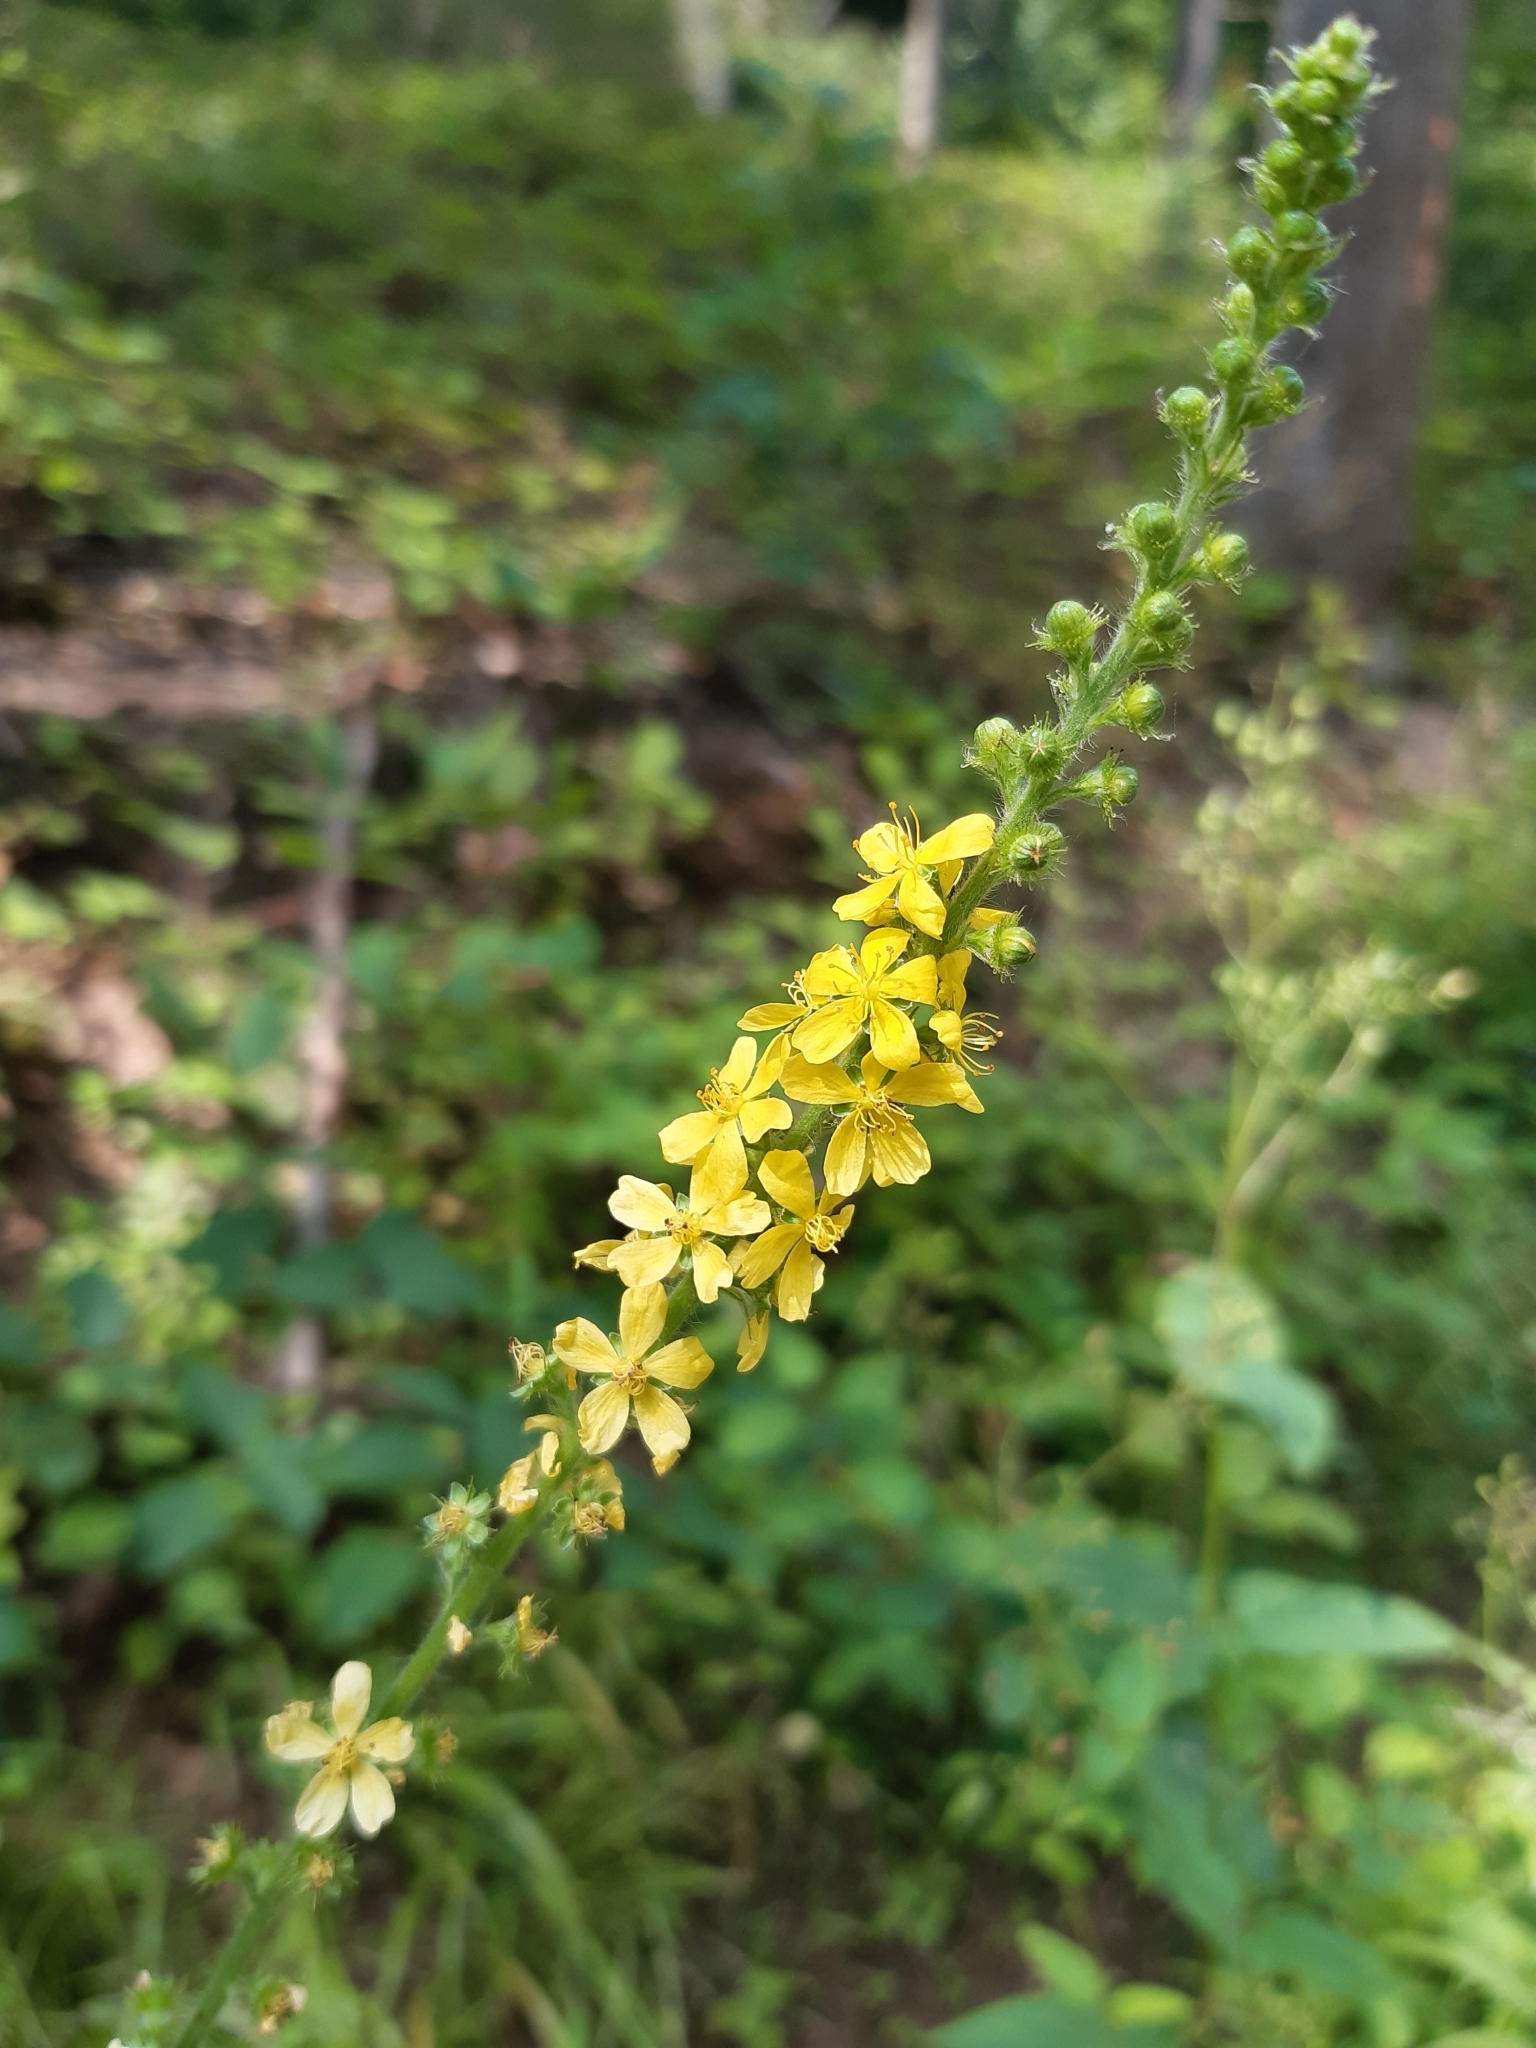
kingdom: Plantae
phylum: Tracheophyta
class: Magnoliopsida
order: Rosales
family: Rosaceae
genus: Agrimonia
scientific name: Agrimonia eupatoria
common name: Agrimony
